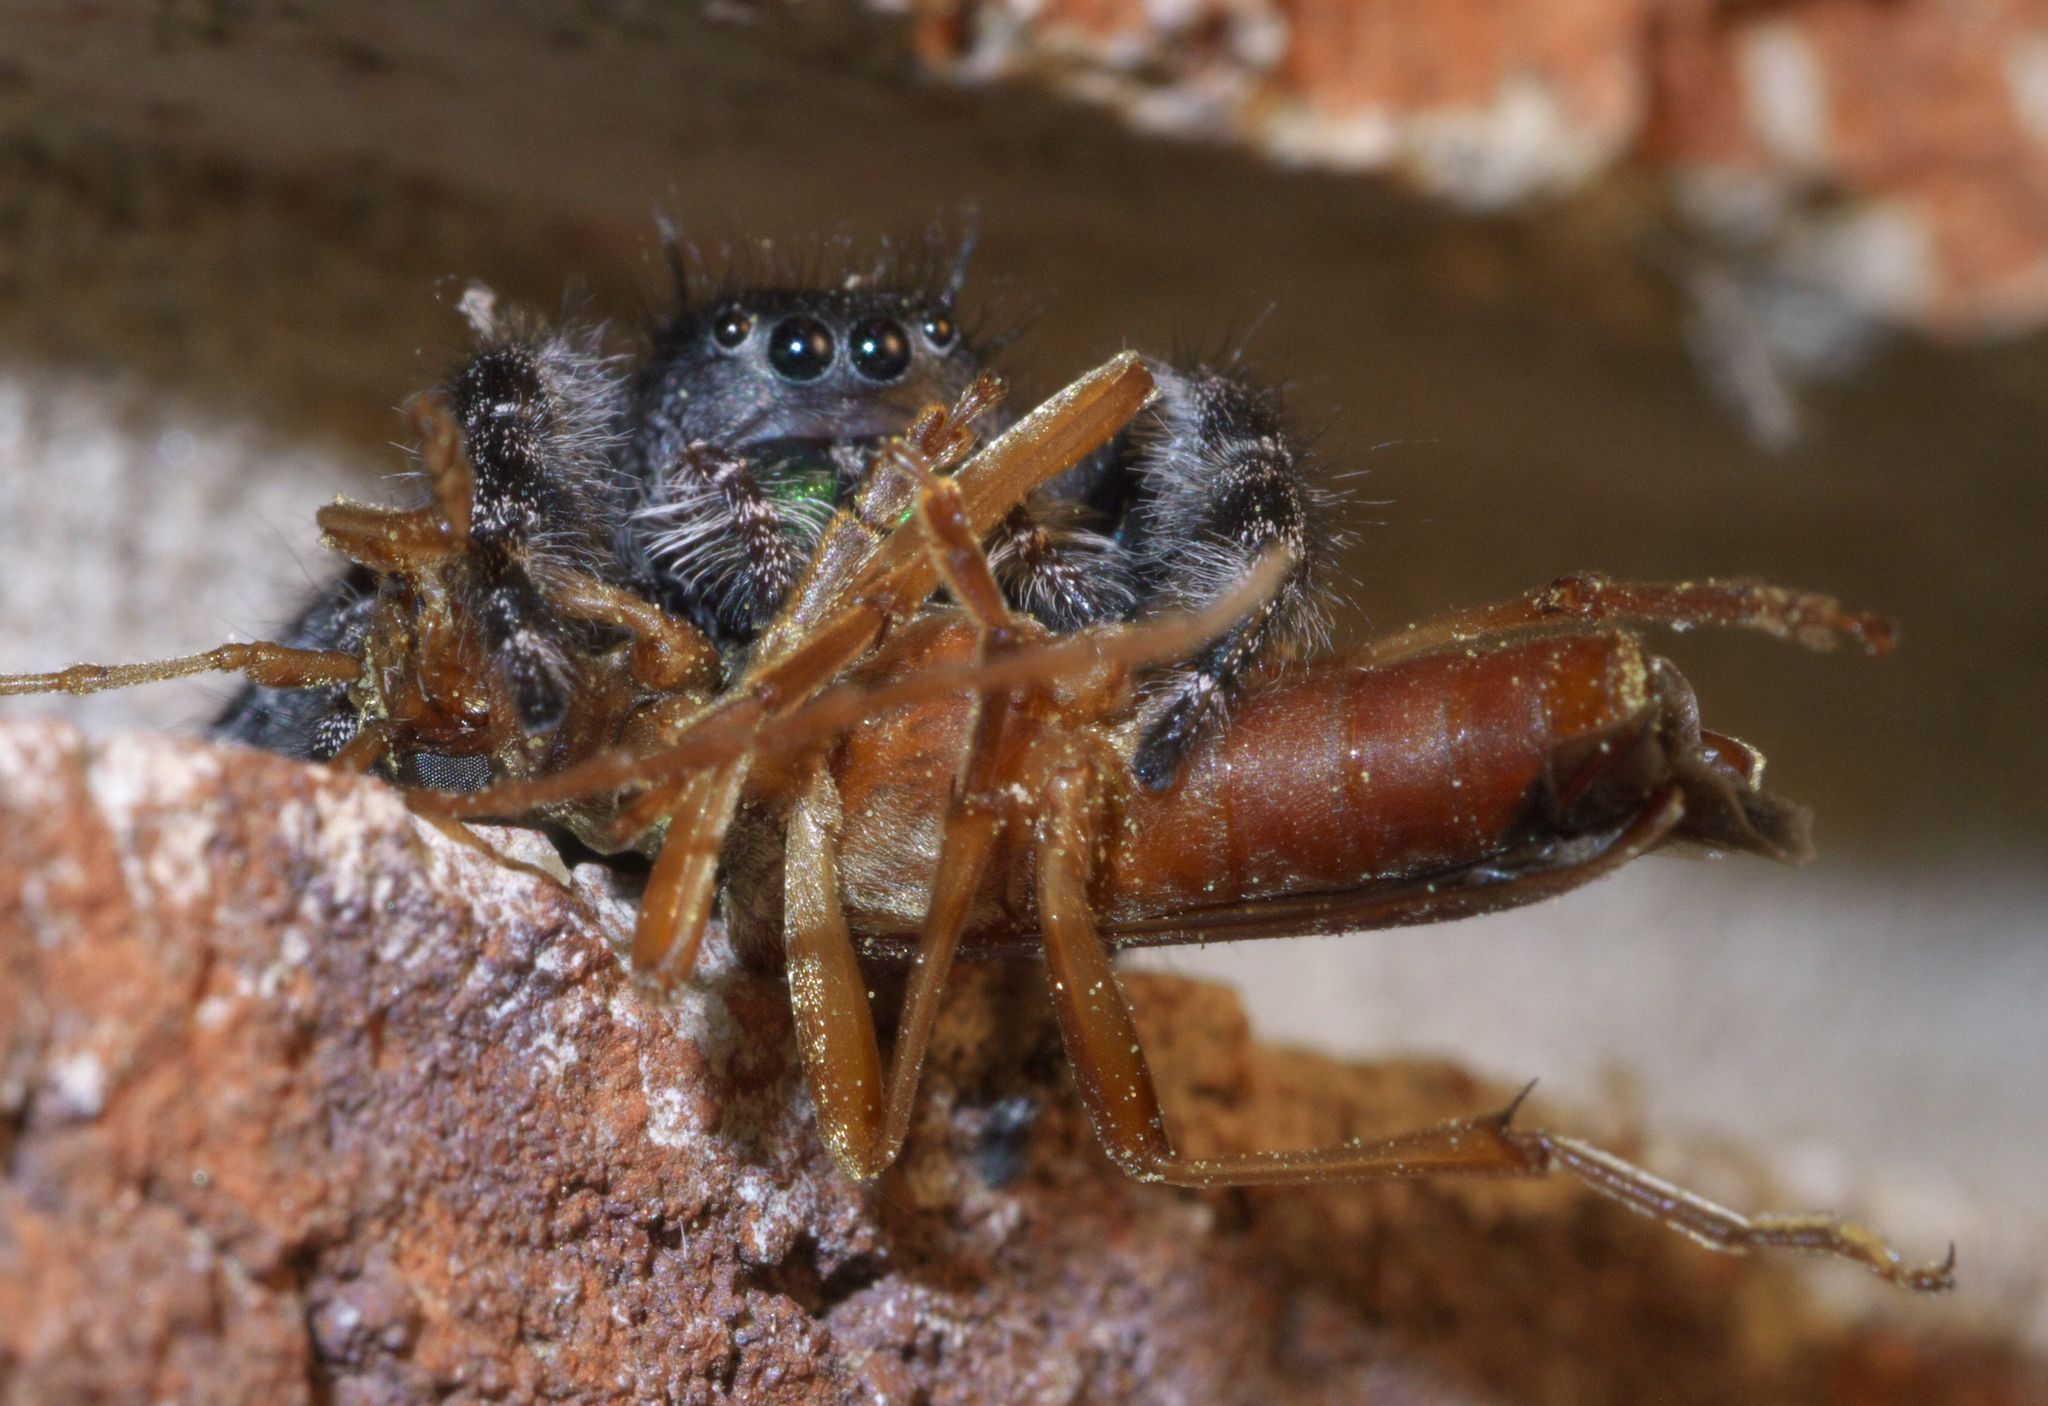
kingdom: Animalia
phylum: Arthropoda
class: Arachnida
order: Araneae
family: Salticidae
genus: Phidippus
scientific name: Phidippus audax
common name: Bold jumper
